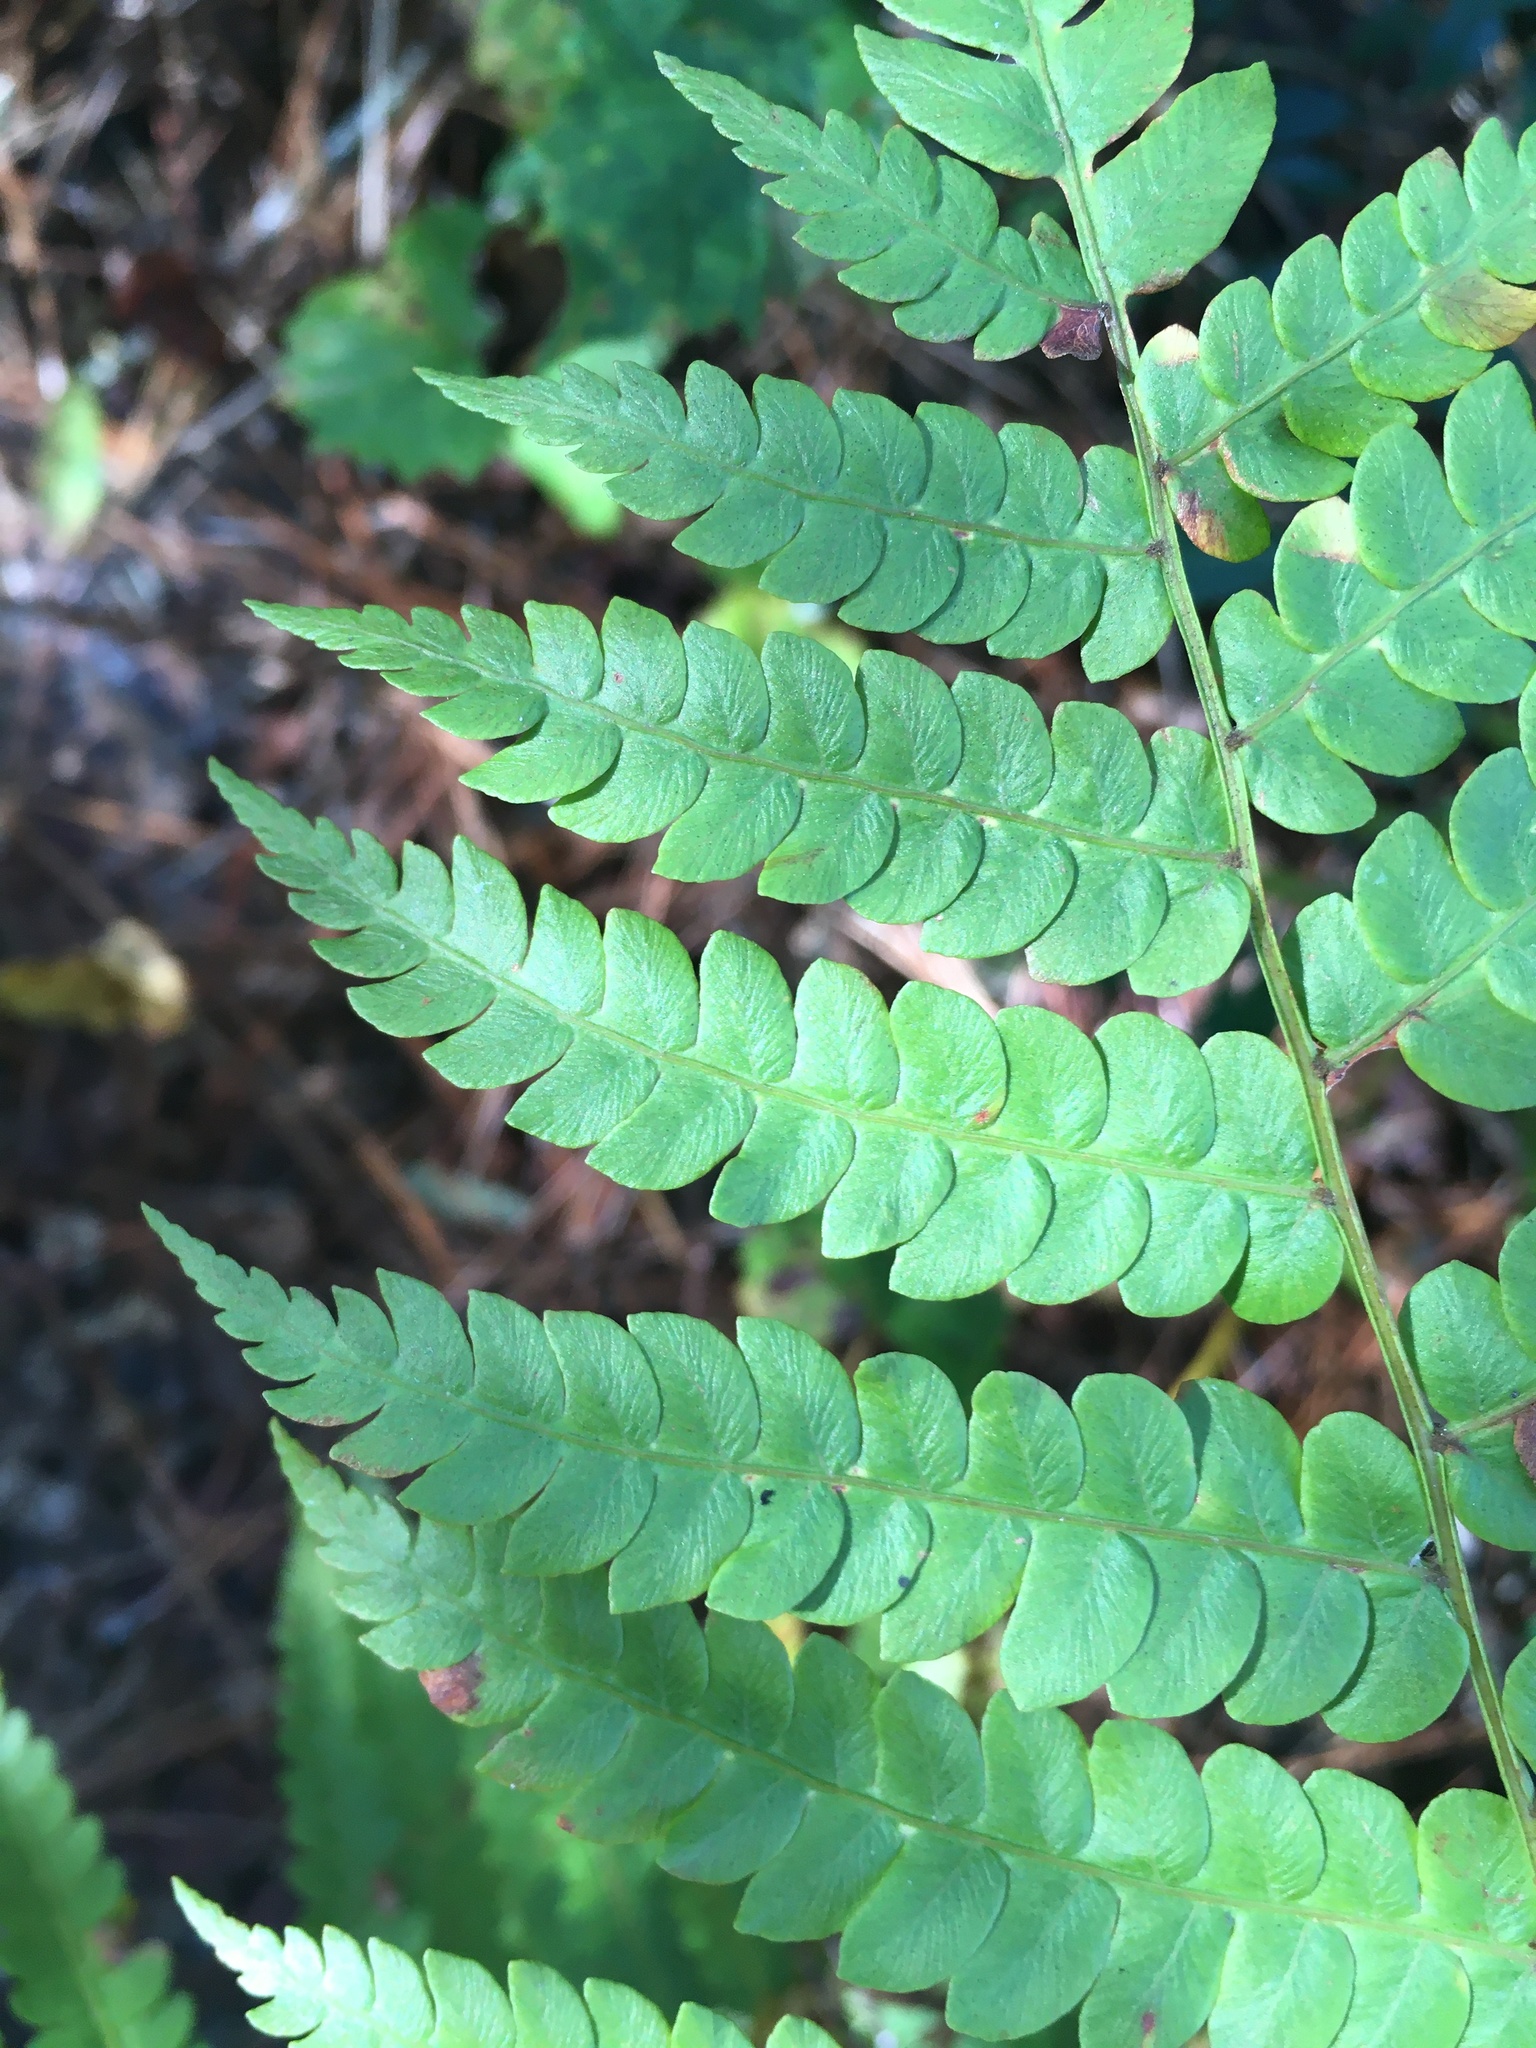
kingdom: Plantae
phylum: Tracheophyta
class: Polypodiopsida
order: Osmundales
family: Osmundaceae
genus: Osmundastrum
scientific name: Osmundastrum cinnamomeum
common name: Cinnamon fern
